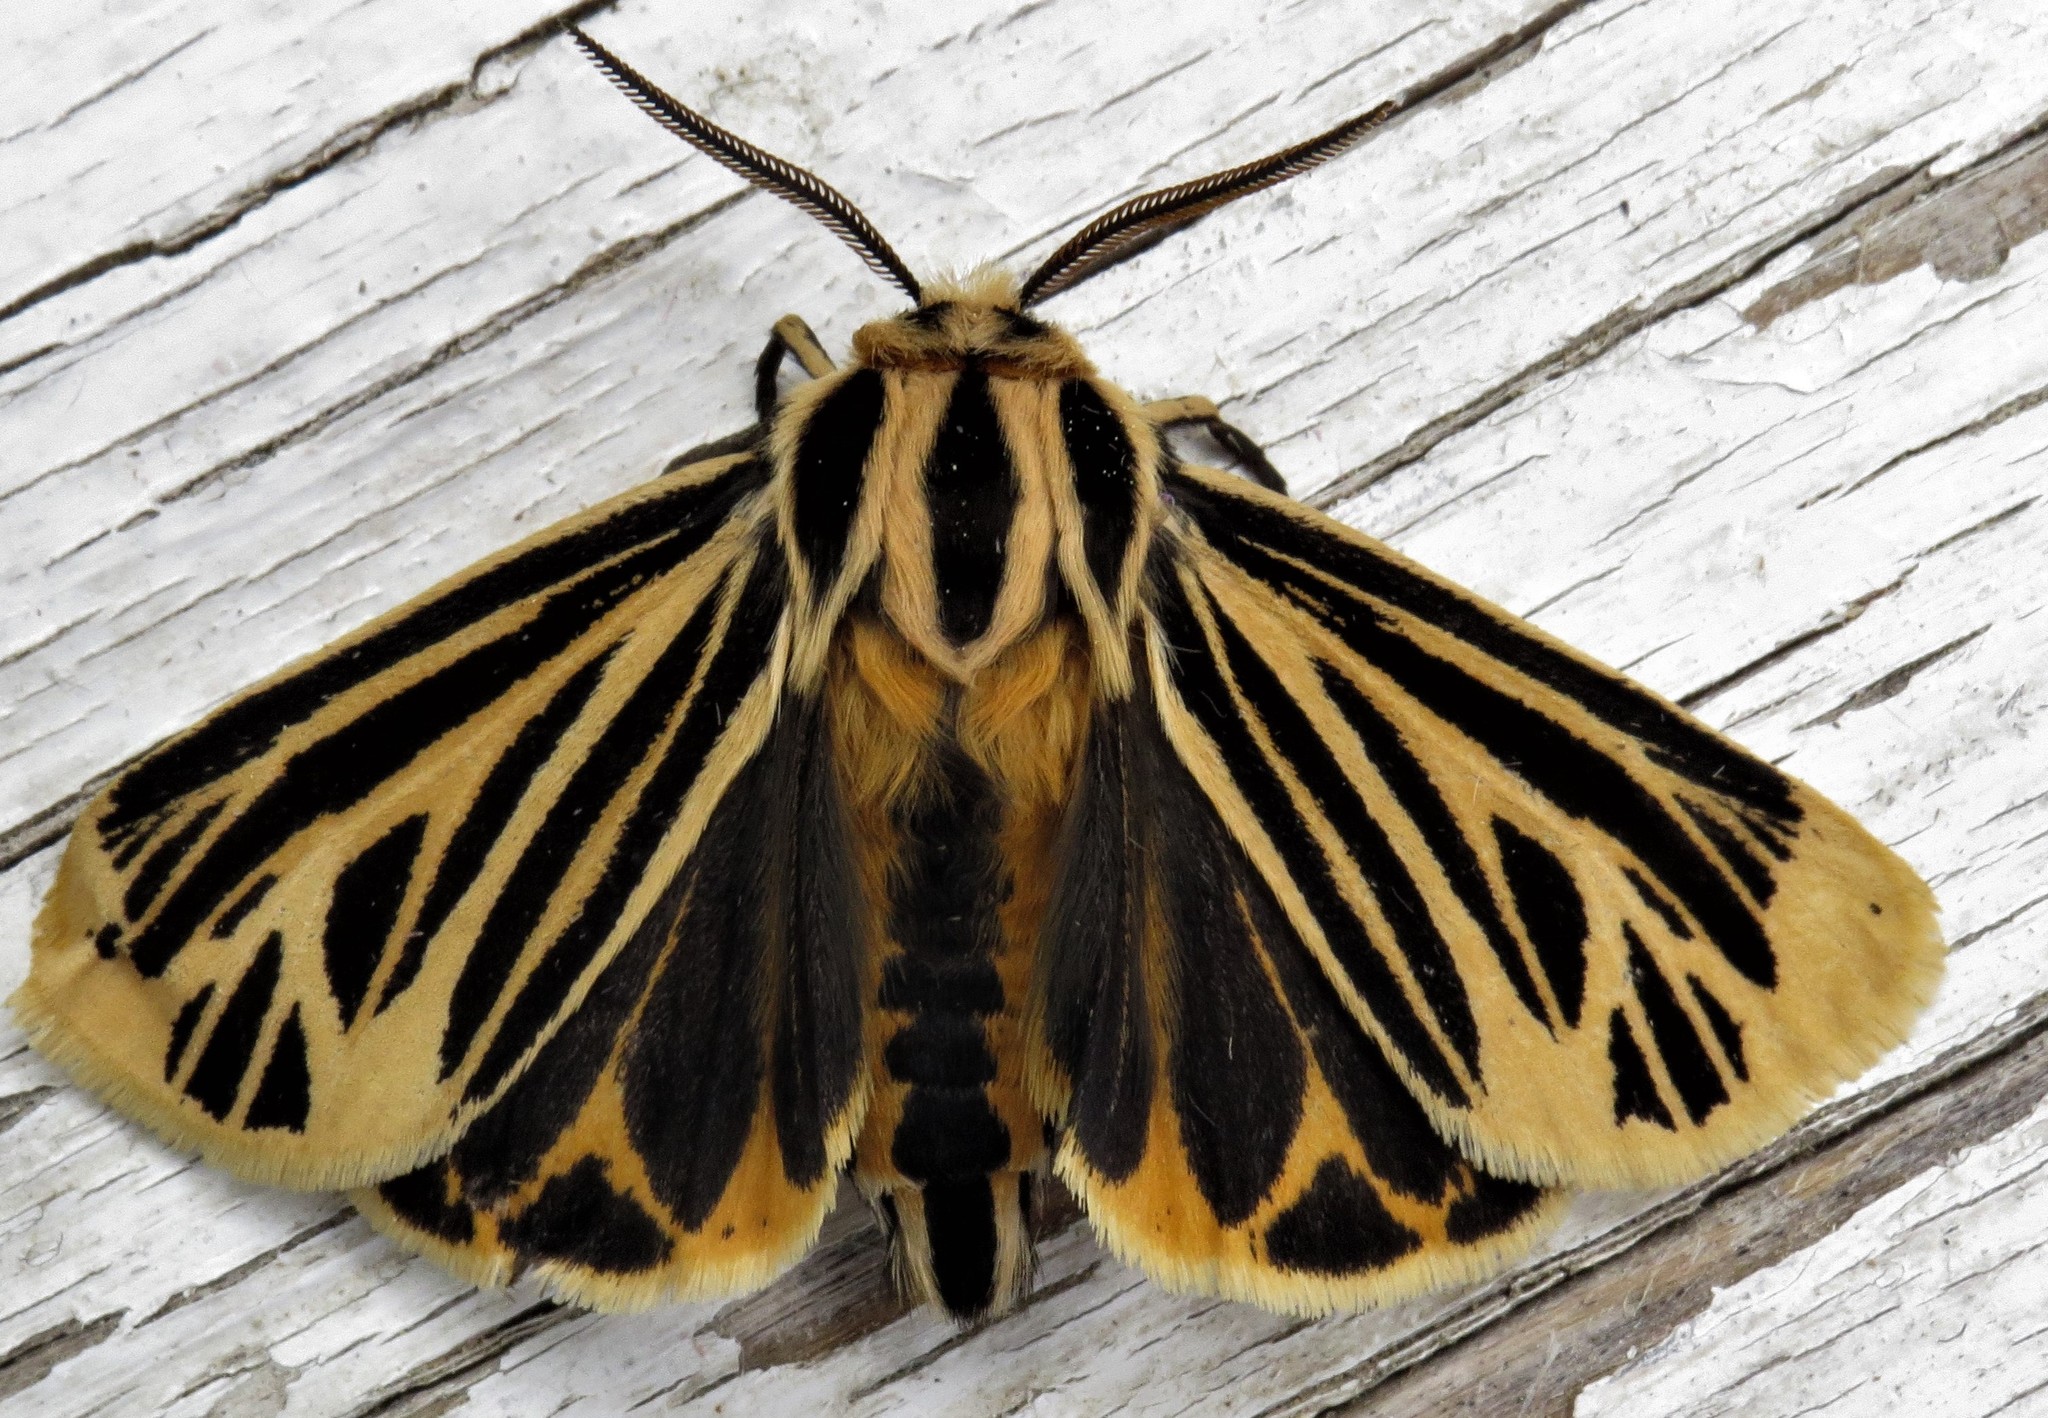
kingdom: Animalia
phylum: Arthropoda
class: Insecta
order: Lepidoptera
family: Erebidae
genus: Grammia
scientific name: Grammia virguncula
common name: Little tiger moth
